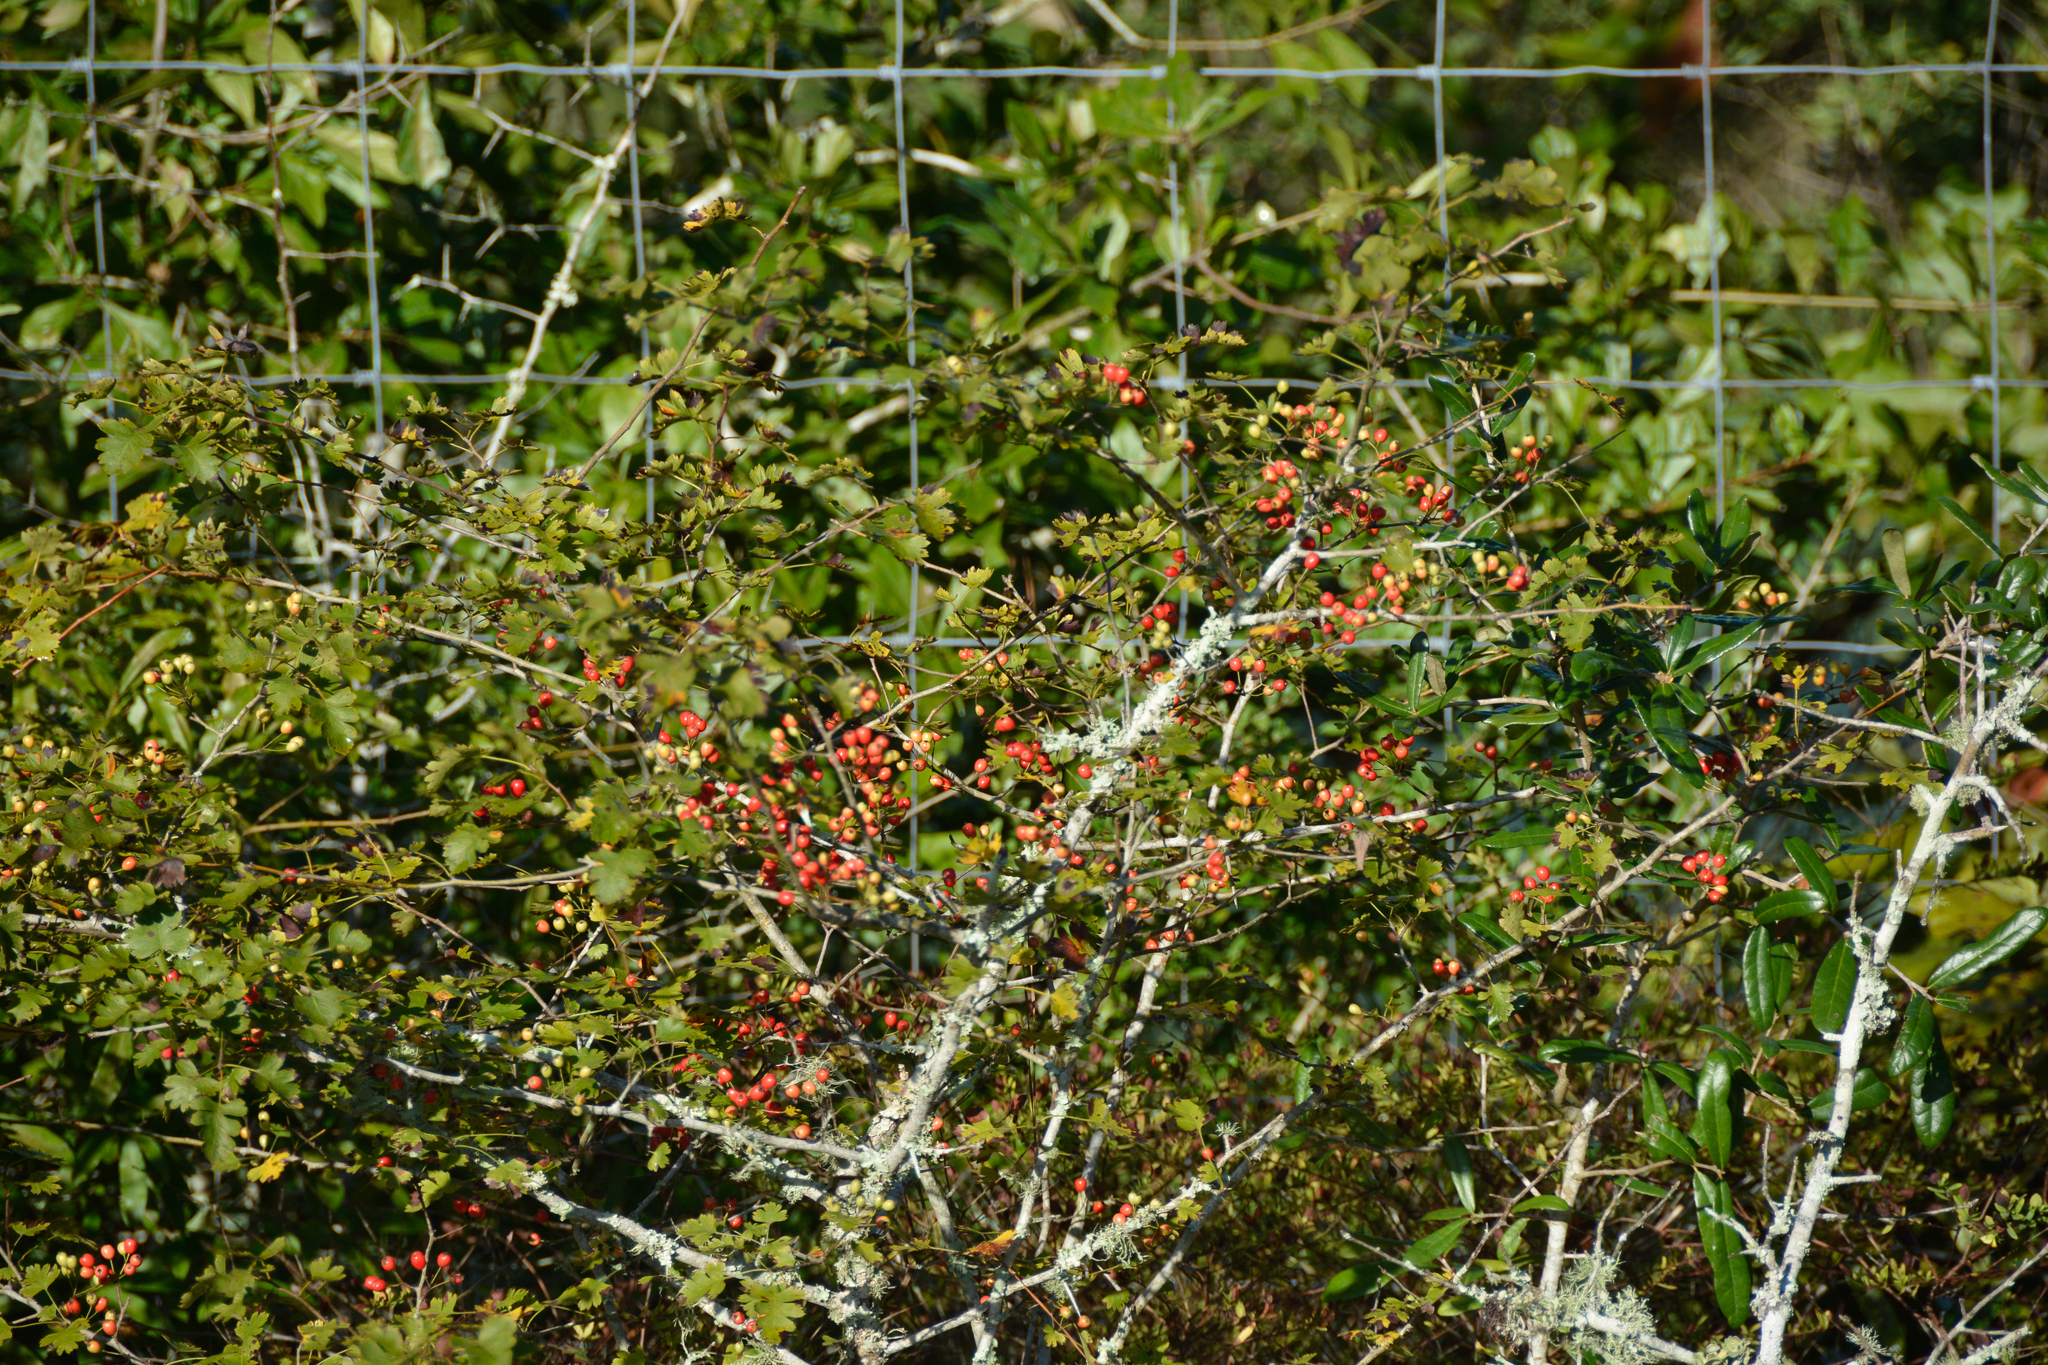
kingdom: Plantae
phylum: Tracheophyta
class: Magnoliopsida
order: Rosales
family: Rosaceae
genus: Crataegus
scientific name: Crataegus marshallii
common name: Parsley-hawthorn
